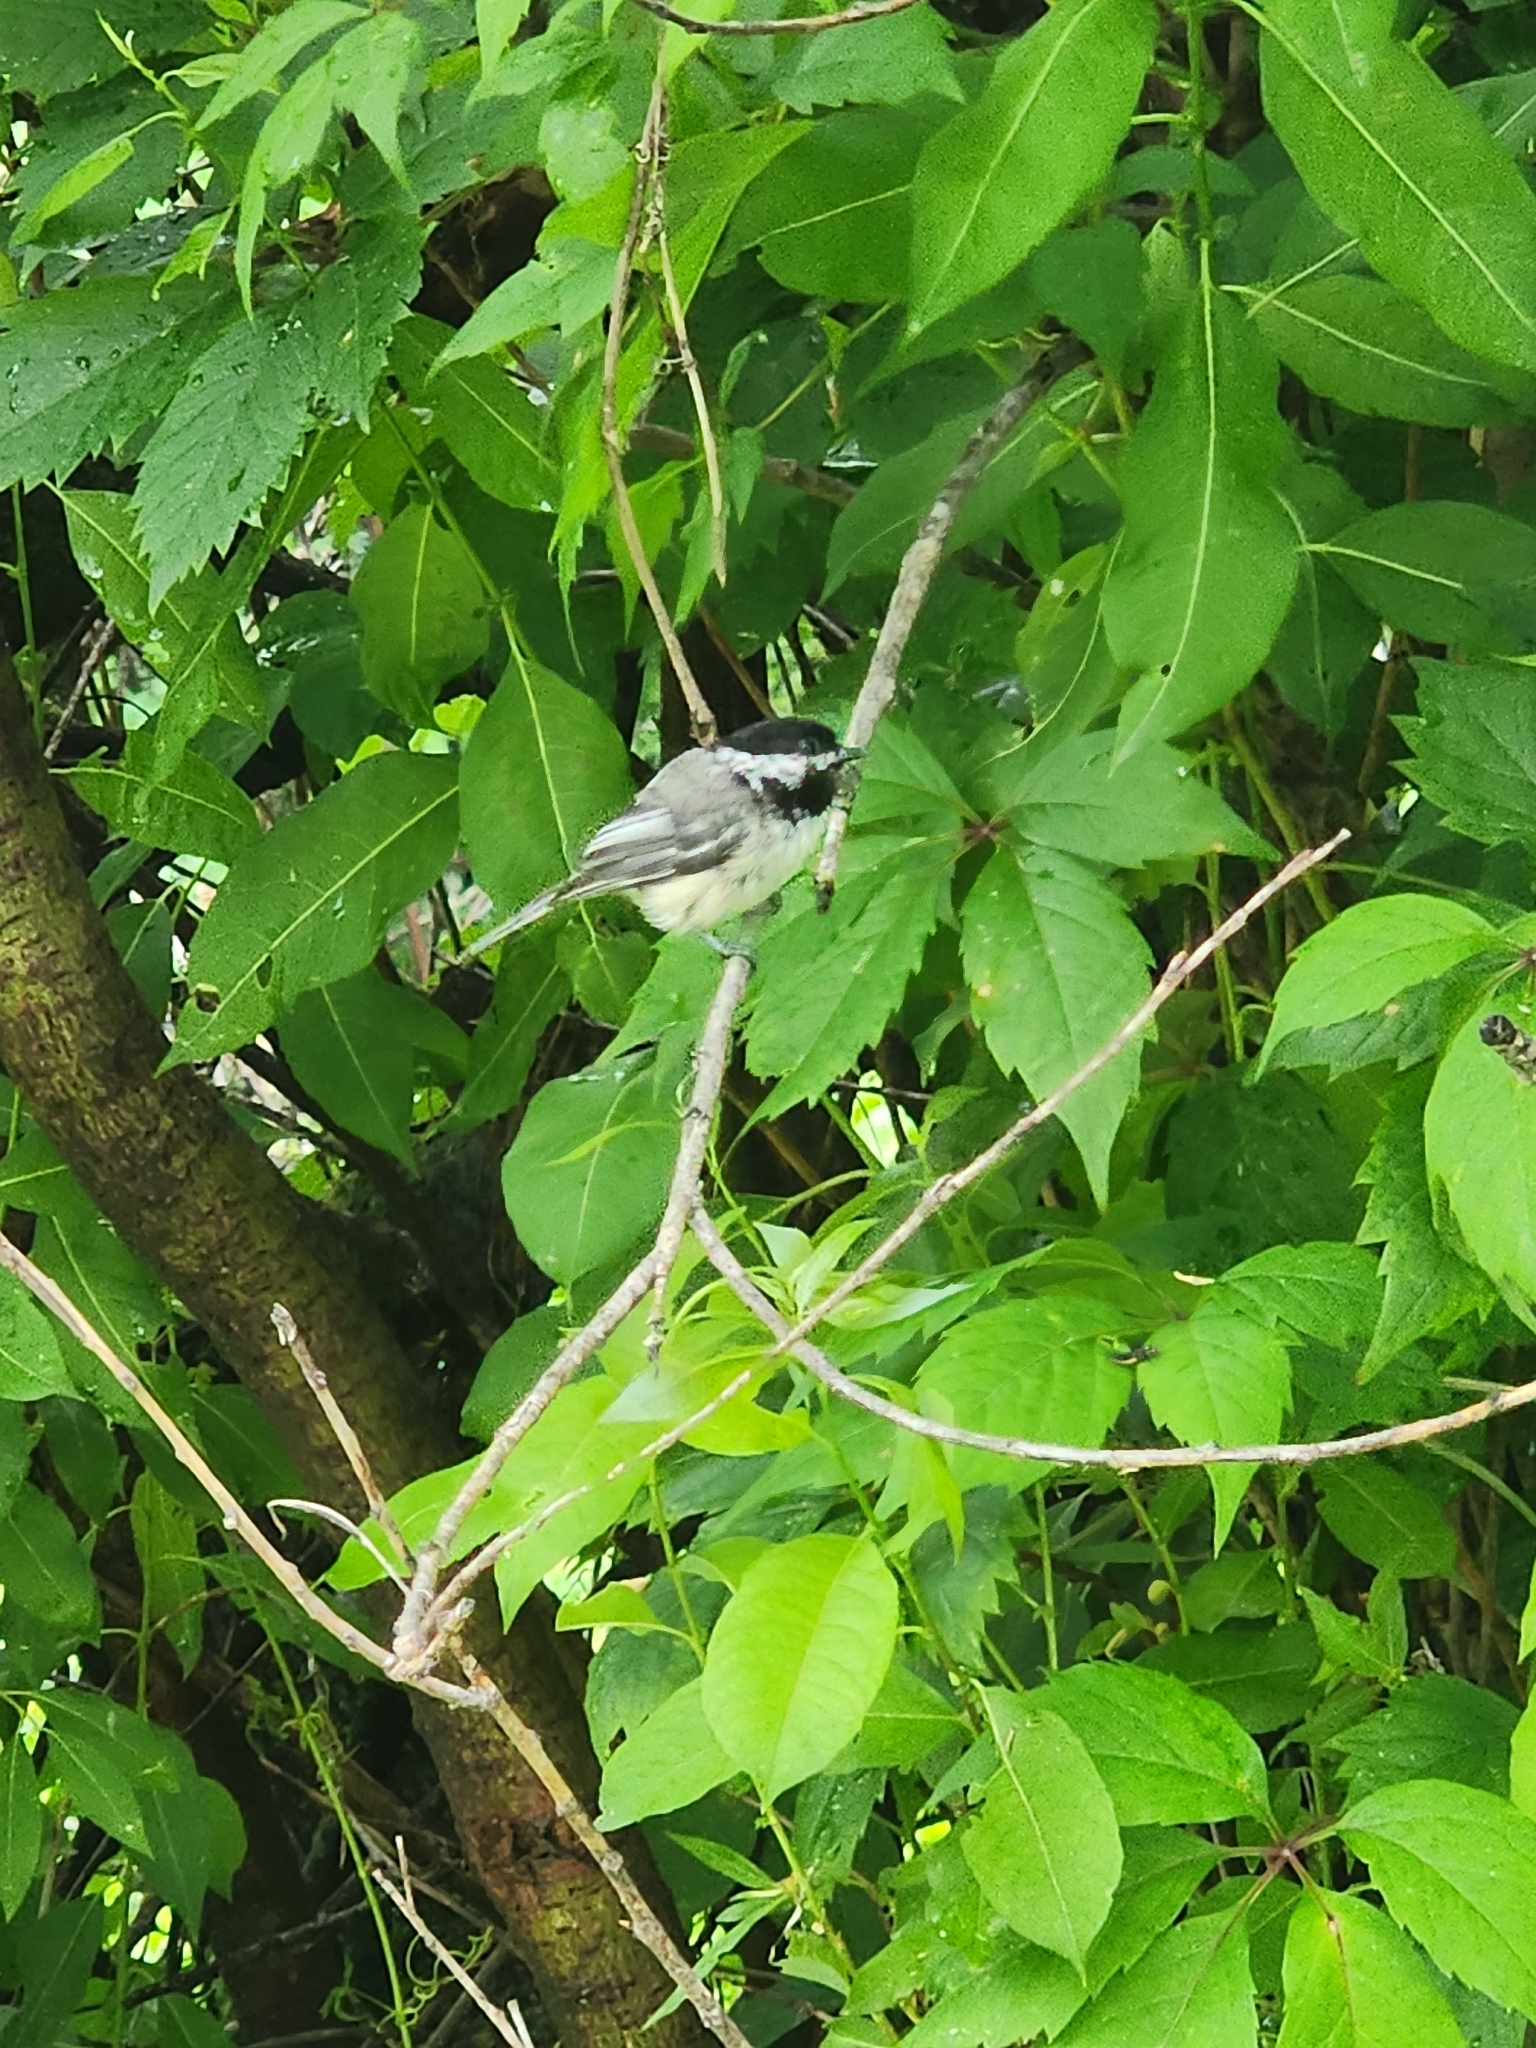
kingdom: Animalia
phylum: Chordata
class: Aves
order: Passeriformes
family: Paridae
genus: Poecile
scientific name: Poecile atricapillus
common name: Black-capped chickadee
